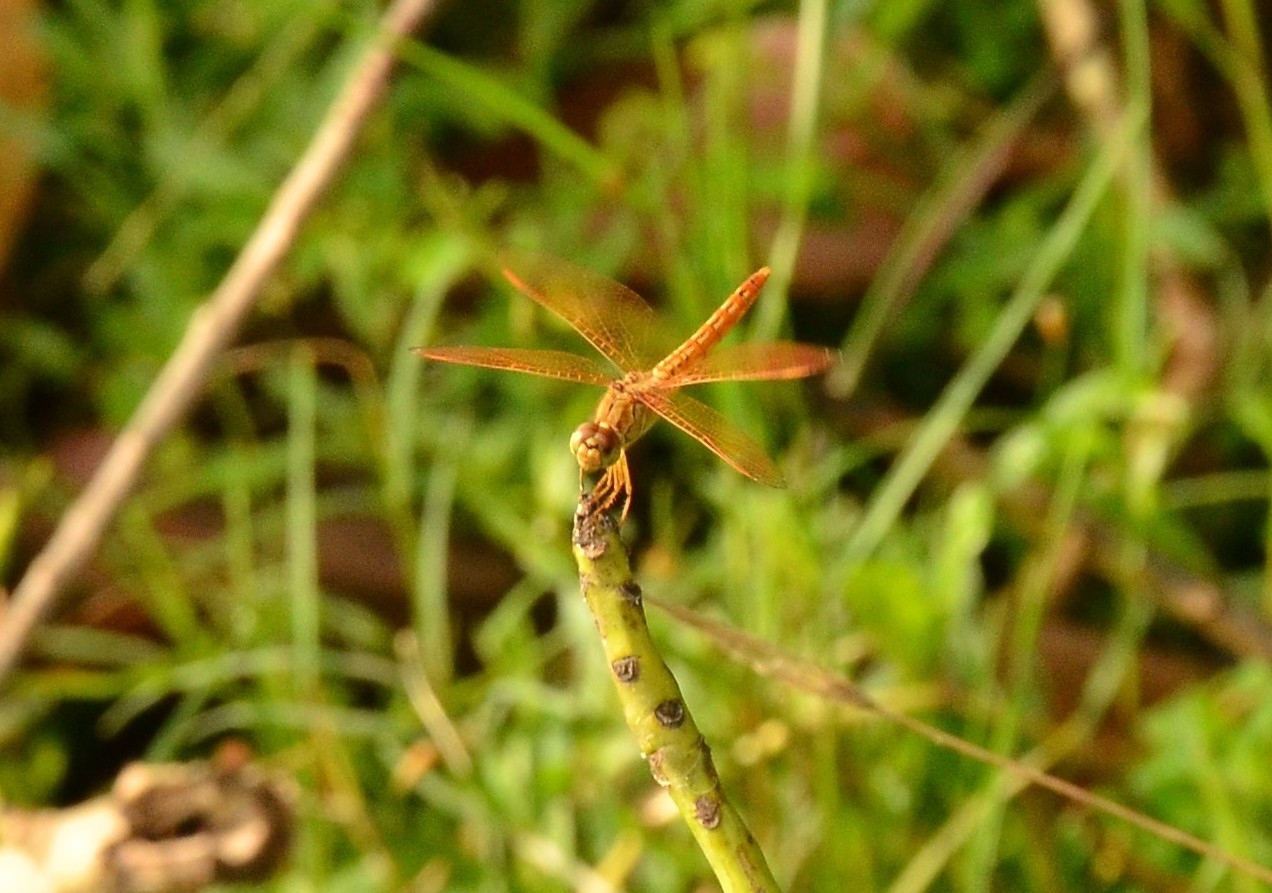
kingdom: Animalia
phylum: Arthropoda
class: Insecta
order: Odonata
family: Libellulidae
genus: Brachythemis
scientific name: Brachythemis contaminata
